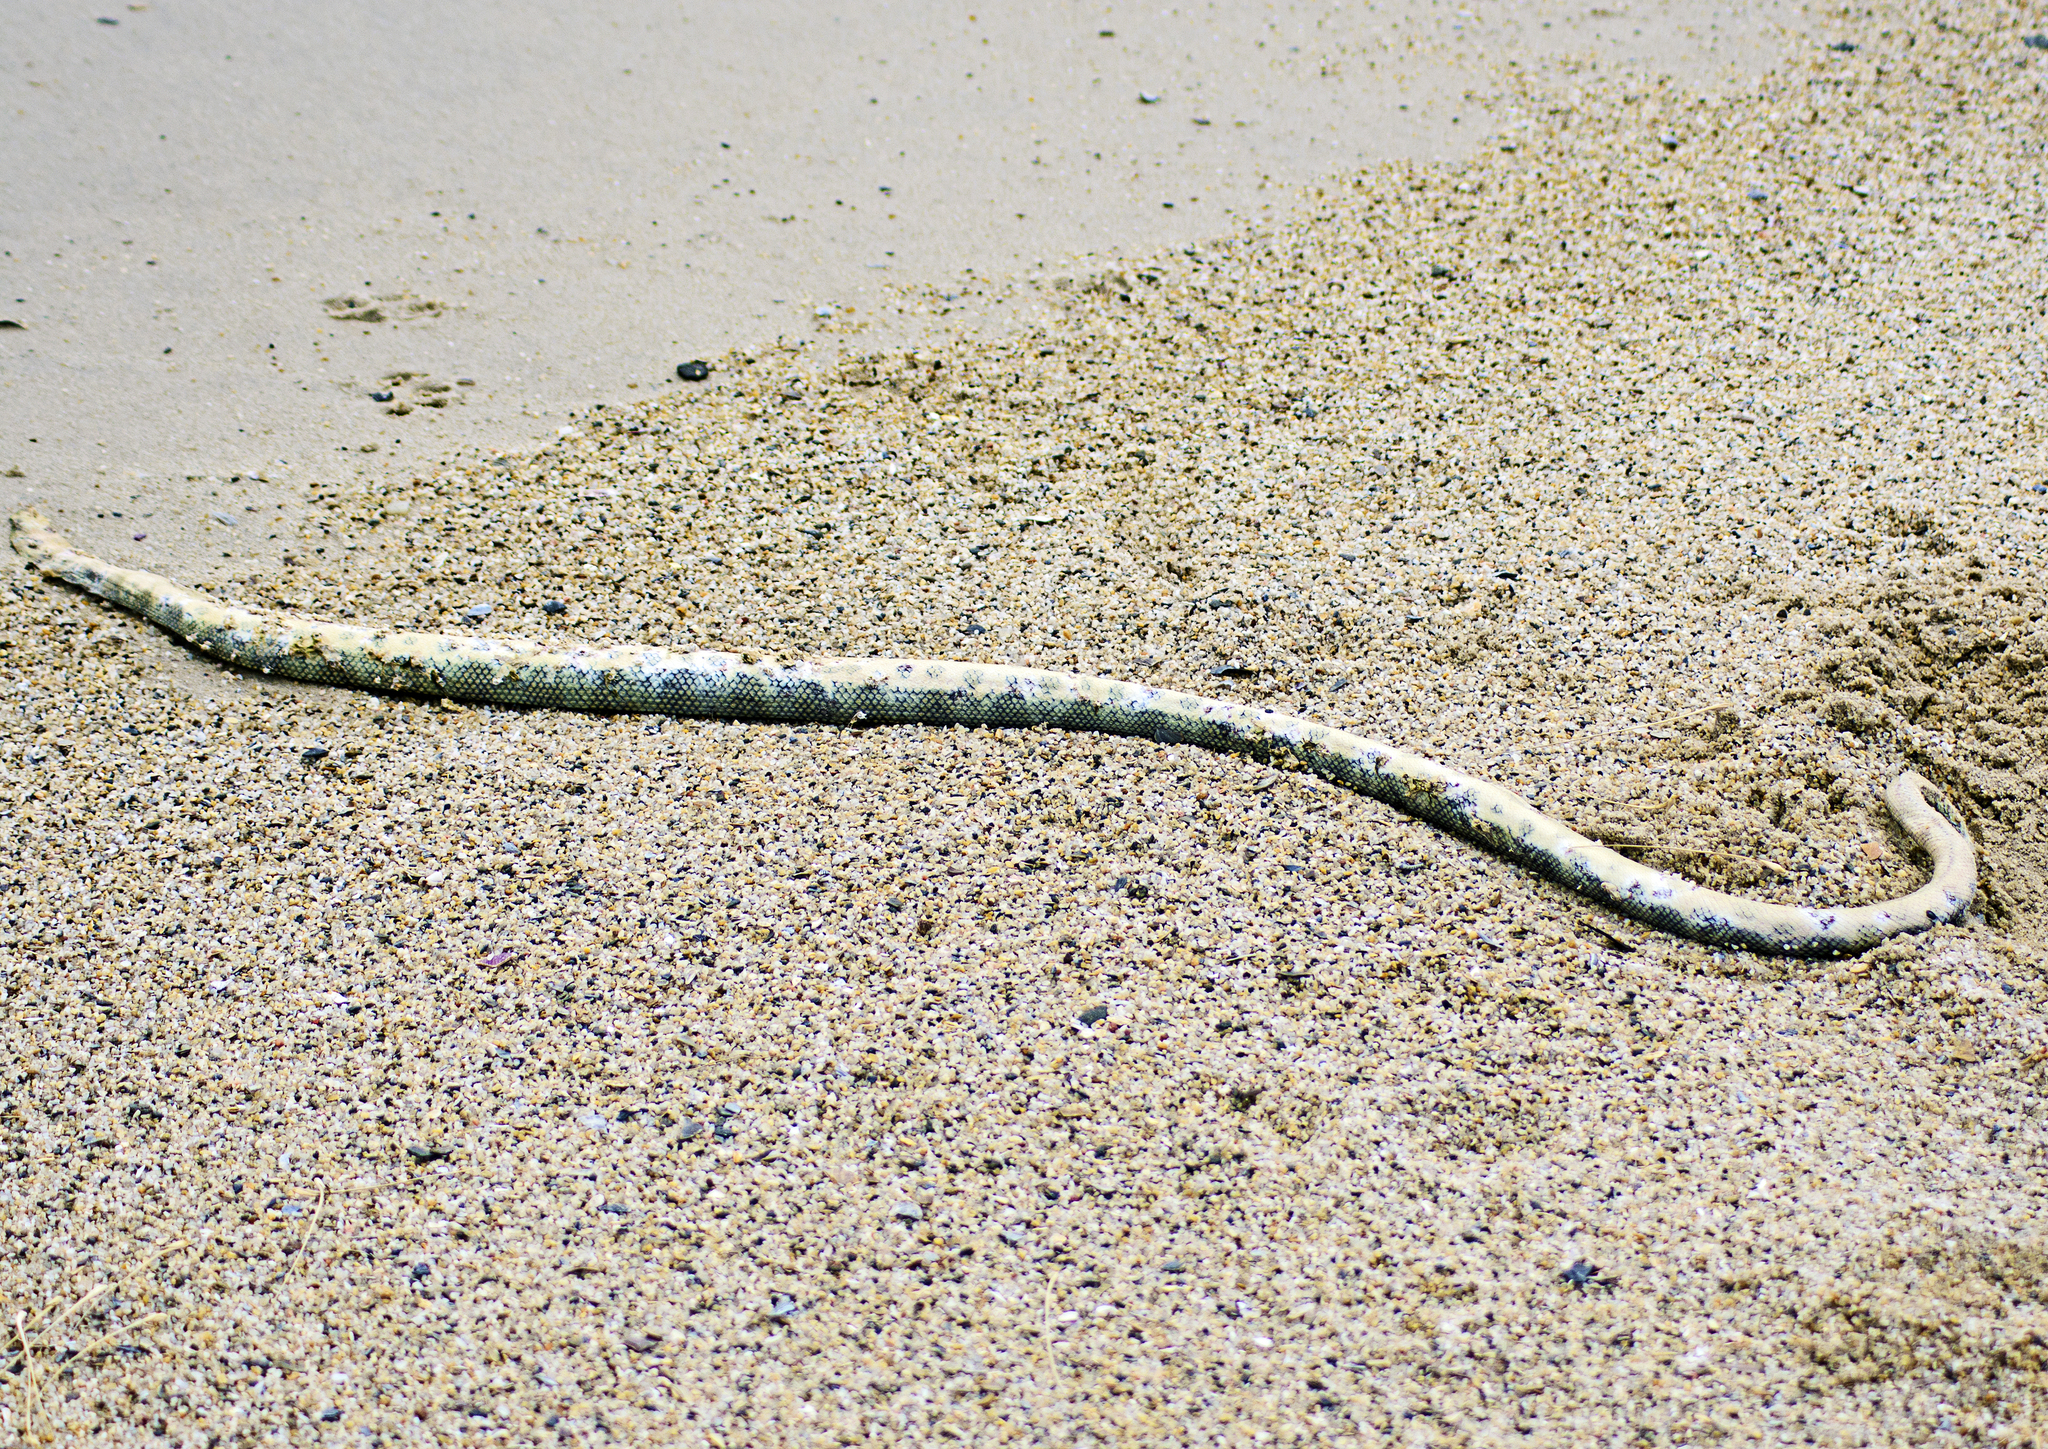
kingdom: Animalia
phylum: Chordata
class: Squamata
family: Elapidae
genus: Hydrophis
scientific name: Hydrophis major
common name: Greater sea snake
